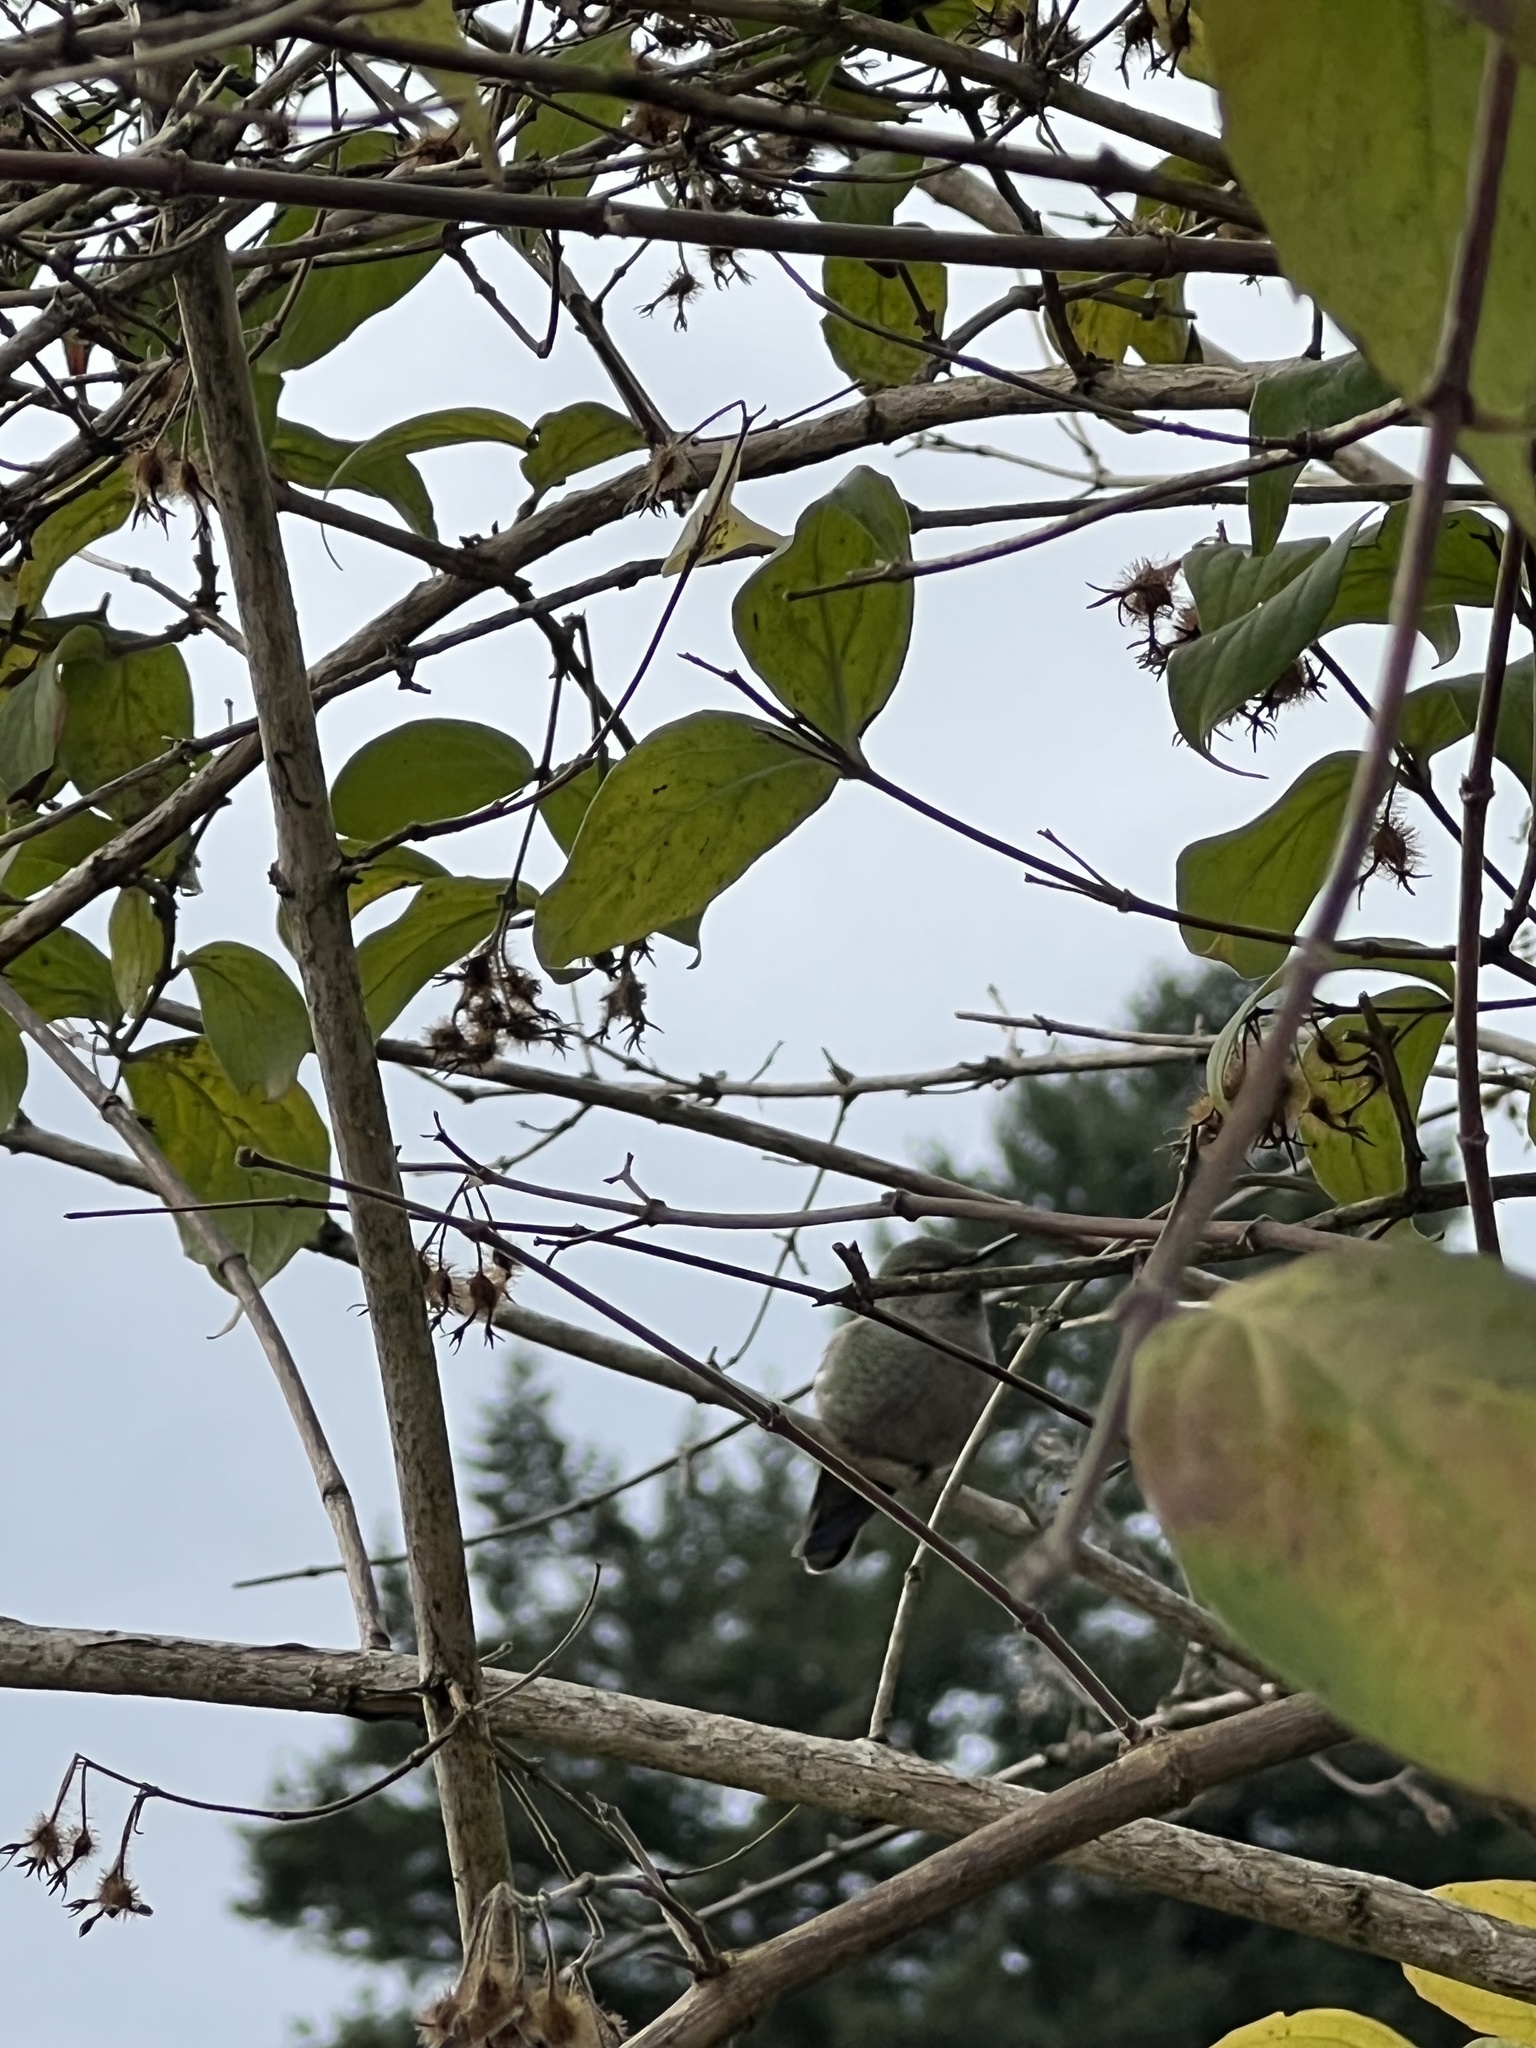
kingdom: Animalia
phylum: Chordata
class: Aves
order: Apodiformes
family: Trochilidae
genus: Calypte
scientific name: Calypte anna
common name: Anna's hummingbird
